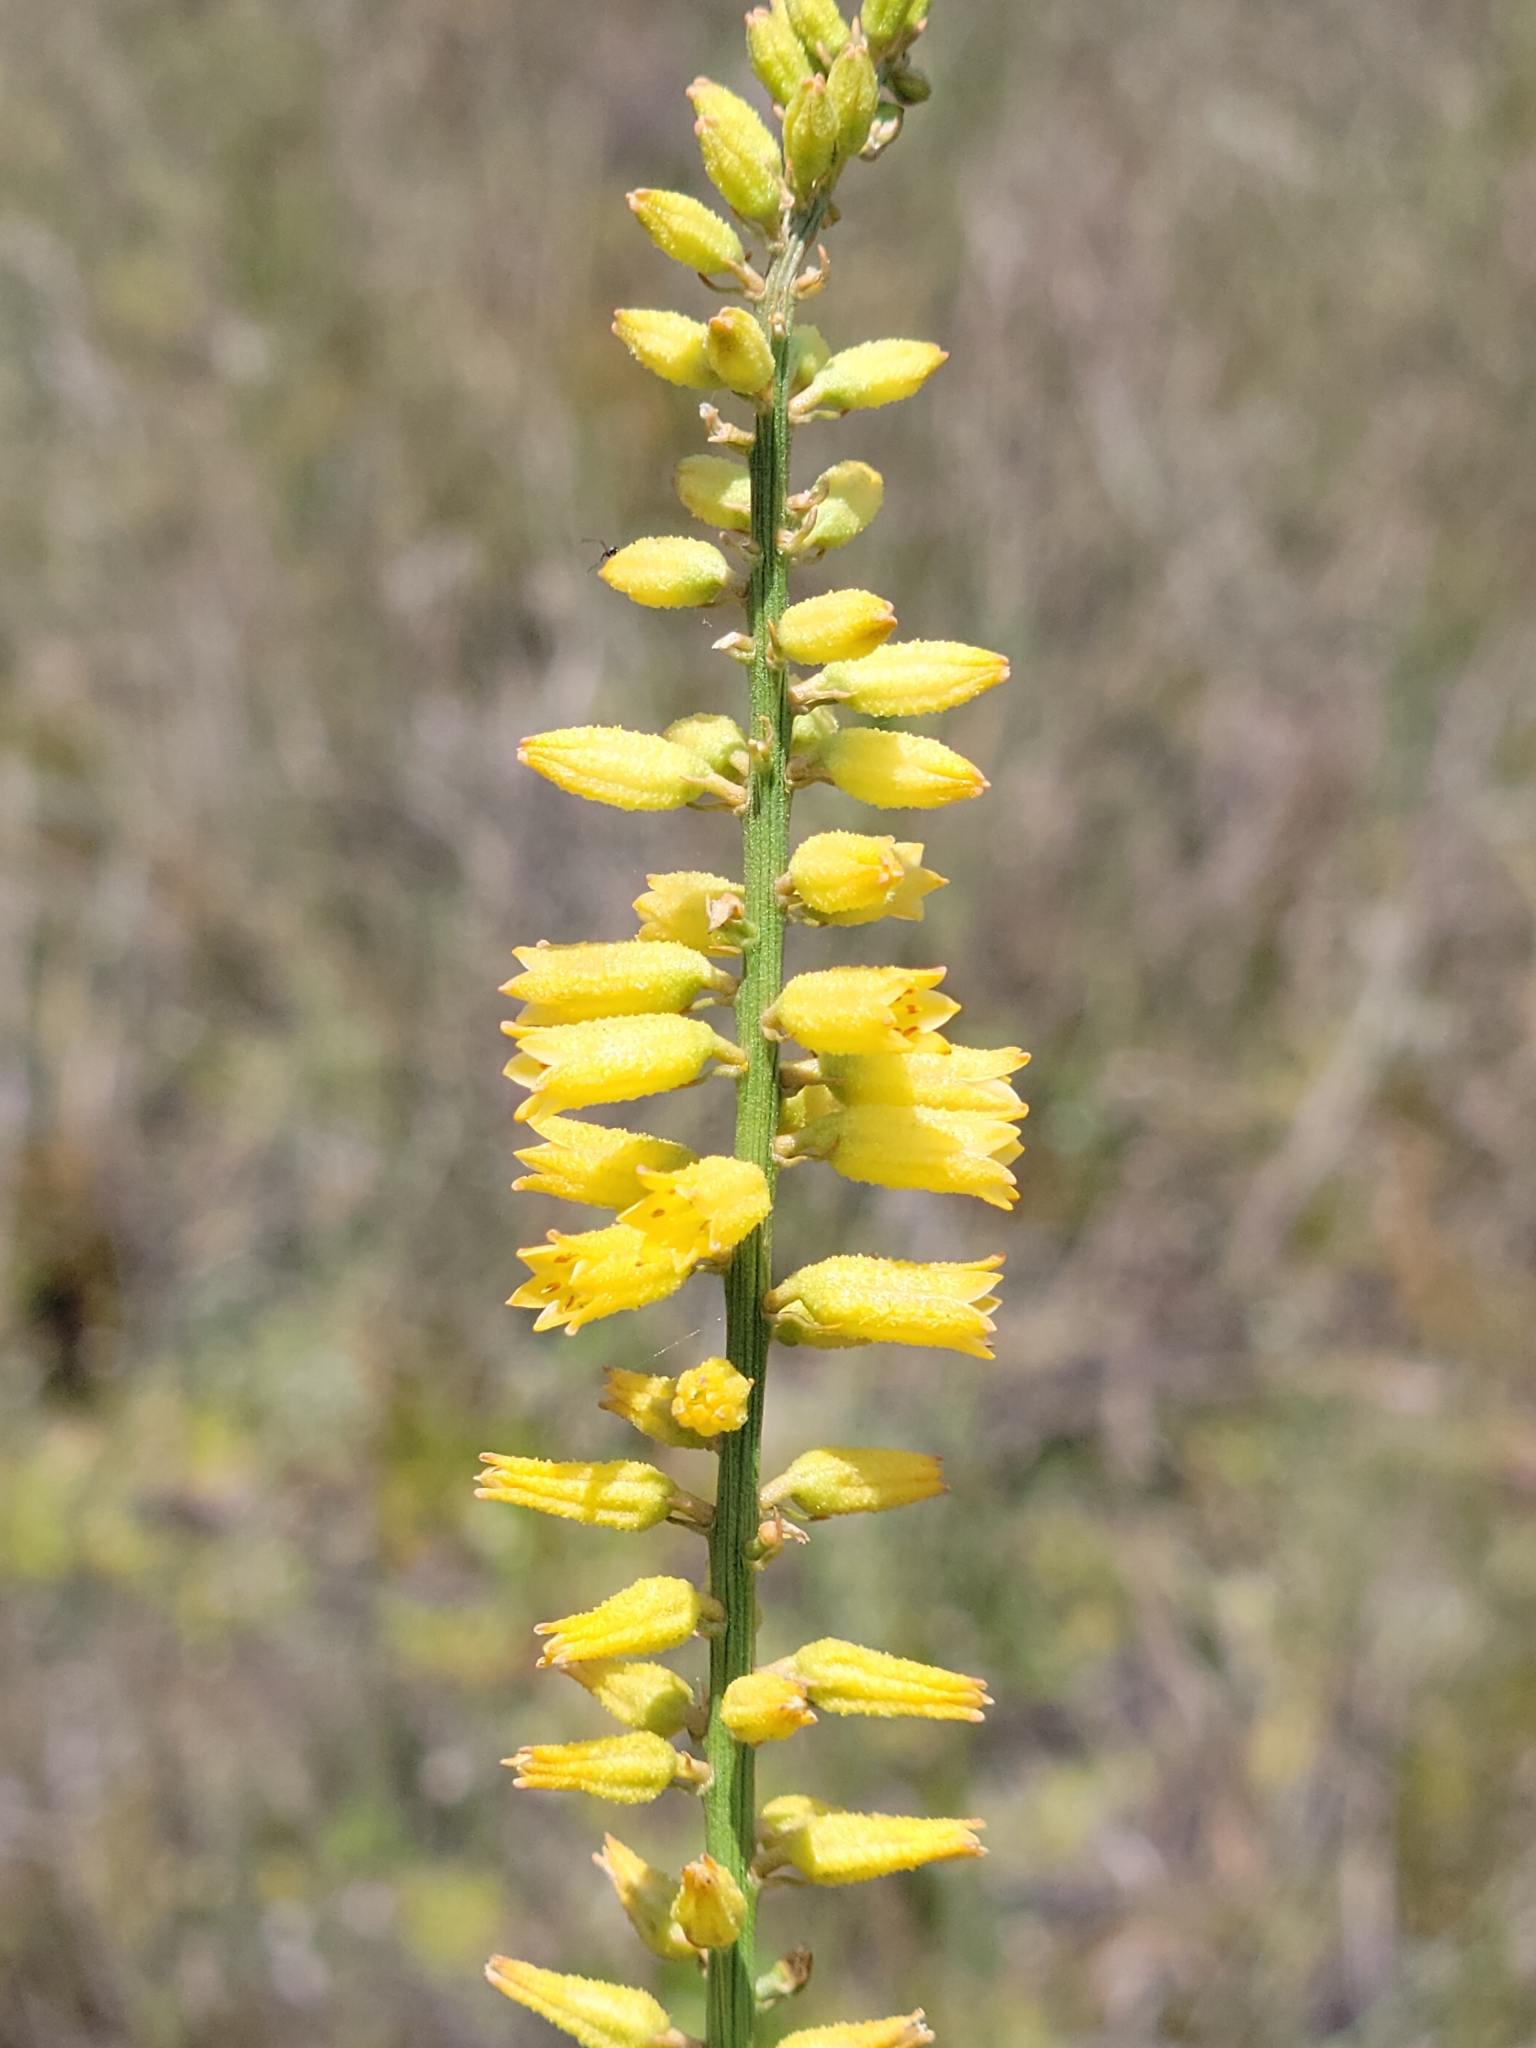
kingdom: Plantae
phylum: Tracheophyta
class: Liliopsida
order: Dioscoreales
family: Nartheciaceae
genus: Aletris
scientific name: Aletris lutea
